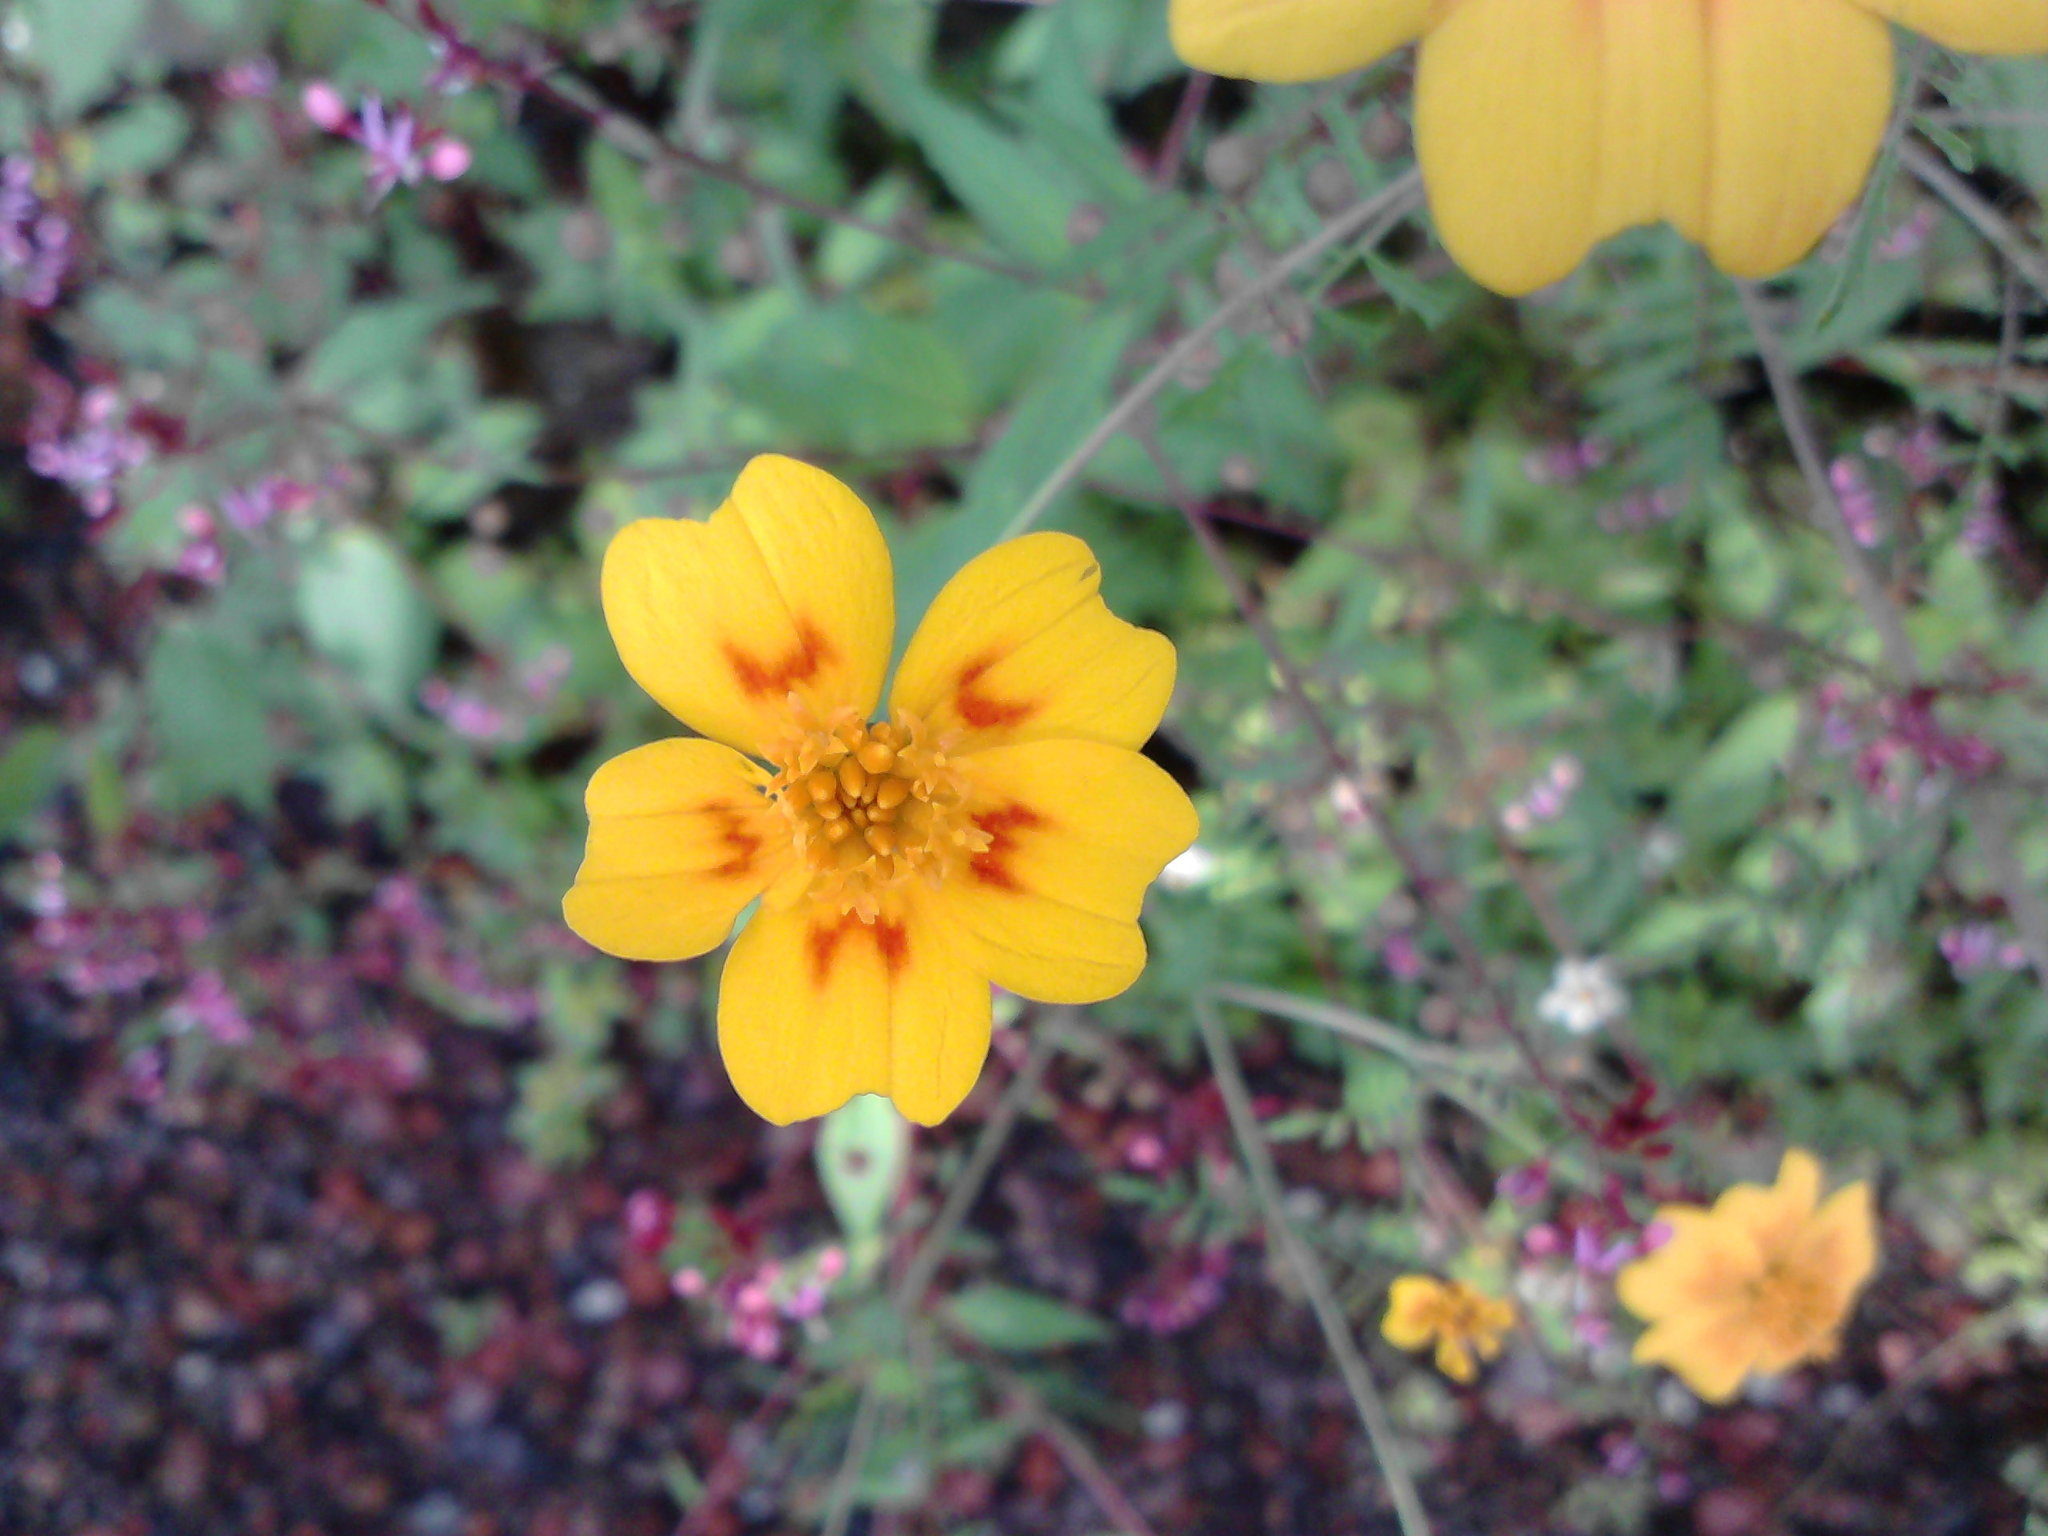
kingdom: Plantae
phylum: Tracheophyta
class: Magnoliopsida
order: Asterales
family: Asteraceae
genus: Tagetes
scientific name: Tagetes lunulata
